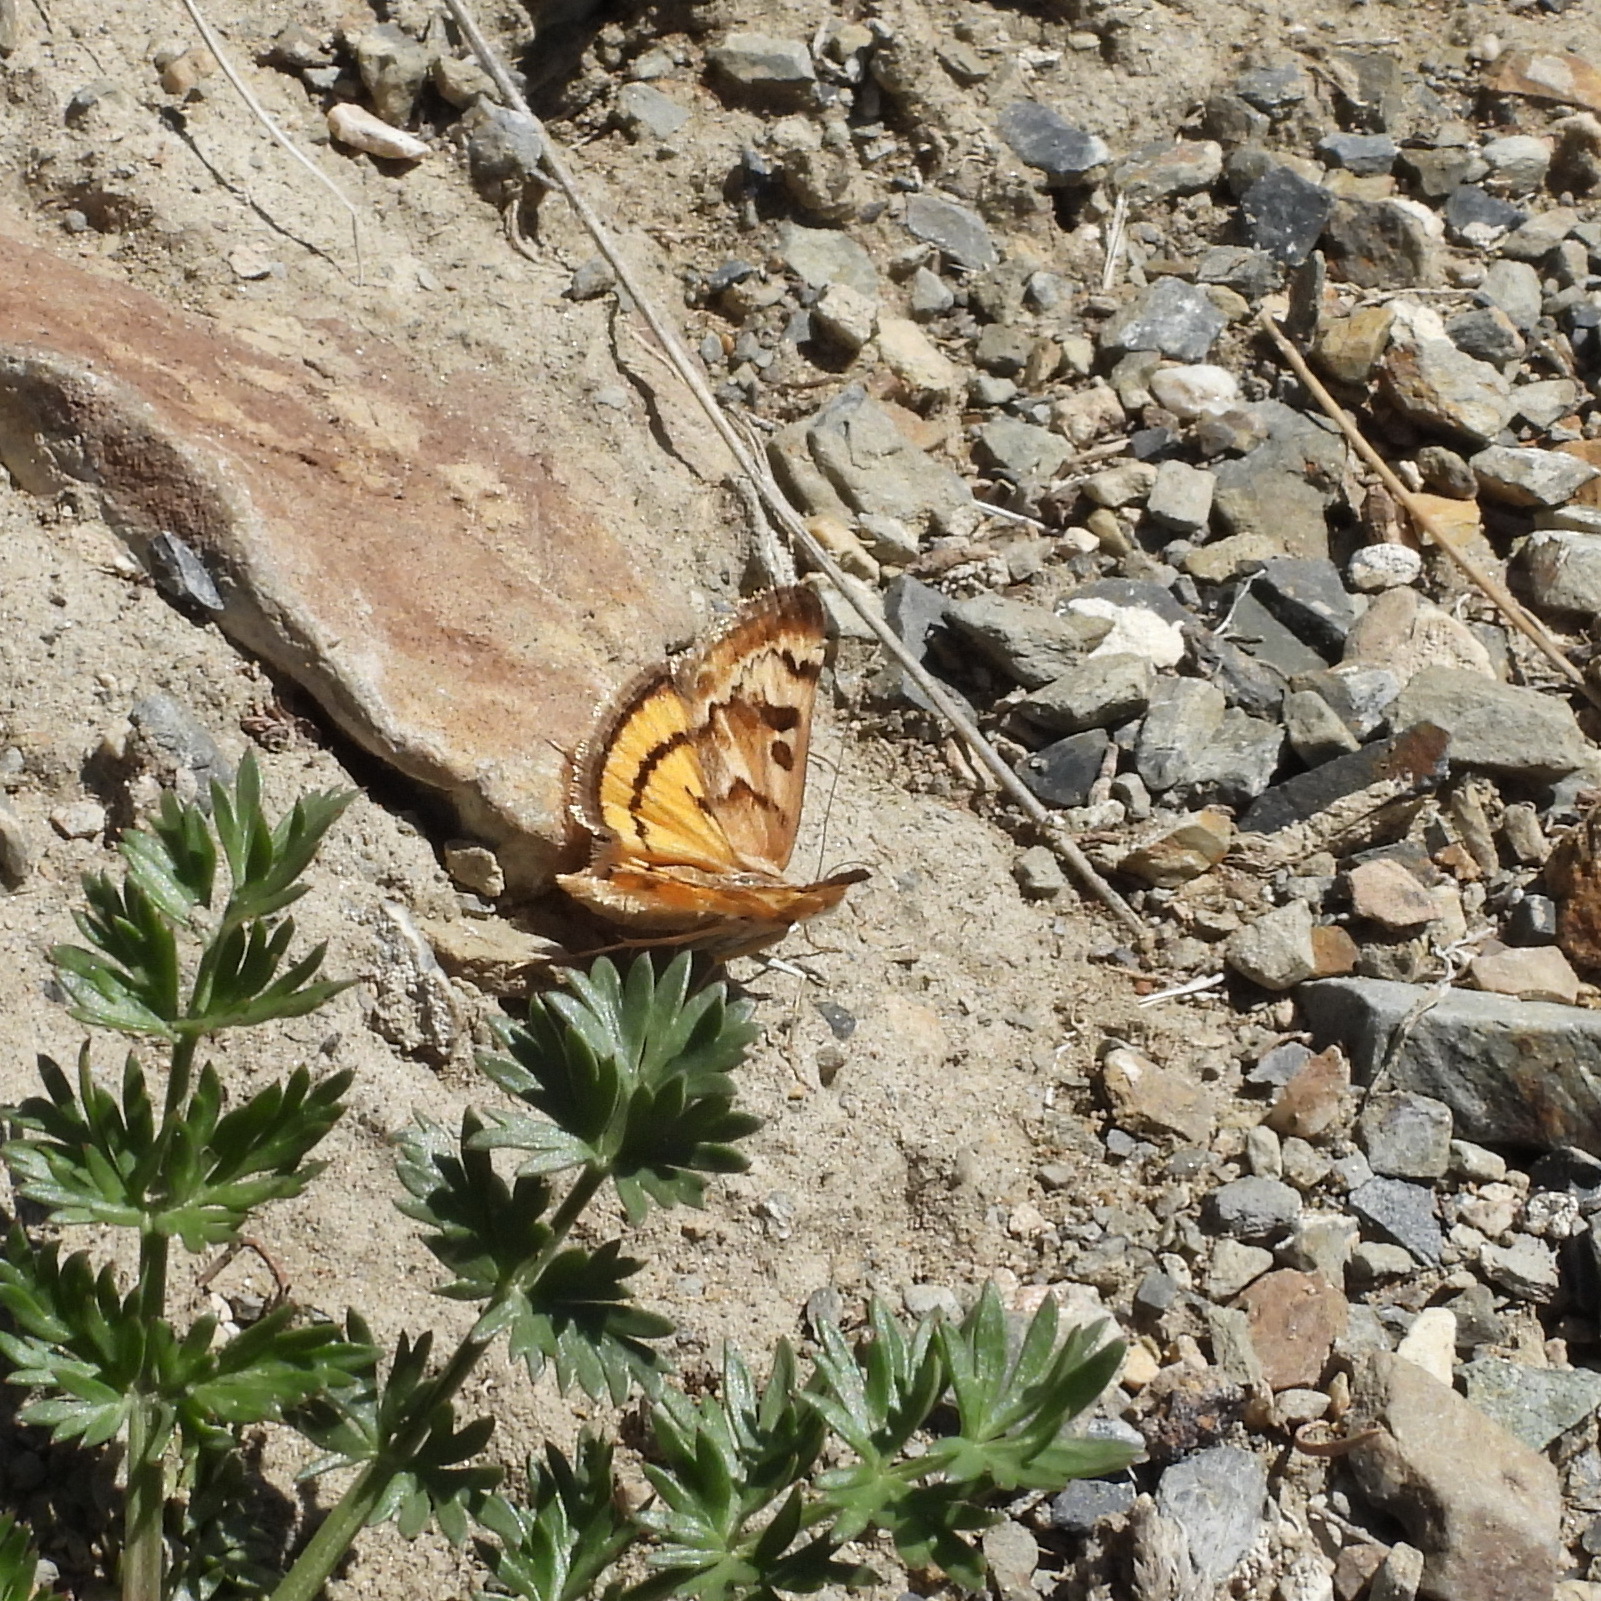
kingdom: Animalia
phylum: Arthropoda
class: Insecta
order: Lepidoptera
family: Crambidae
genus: Loxostege
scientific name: Loxostege eversmanni
